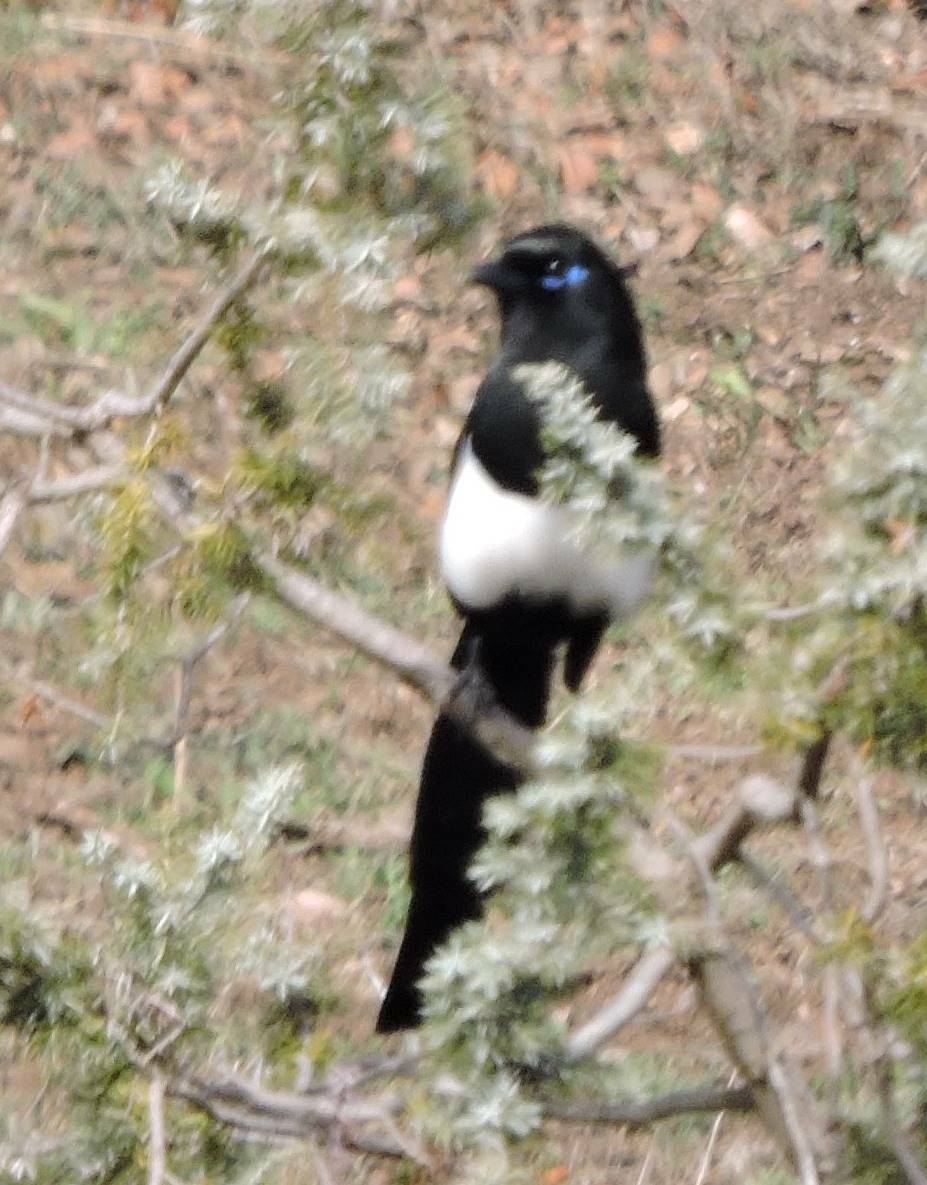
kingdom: Animalia
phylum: Chordata
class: Aves
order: Passeriformes
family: Corvidae
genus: Pica
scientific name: Pica mauritanica
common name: Maghreb magpie
